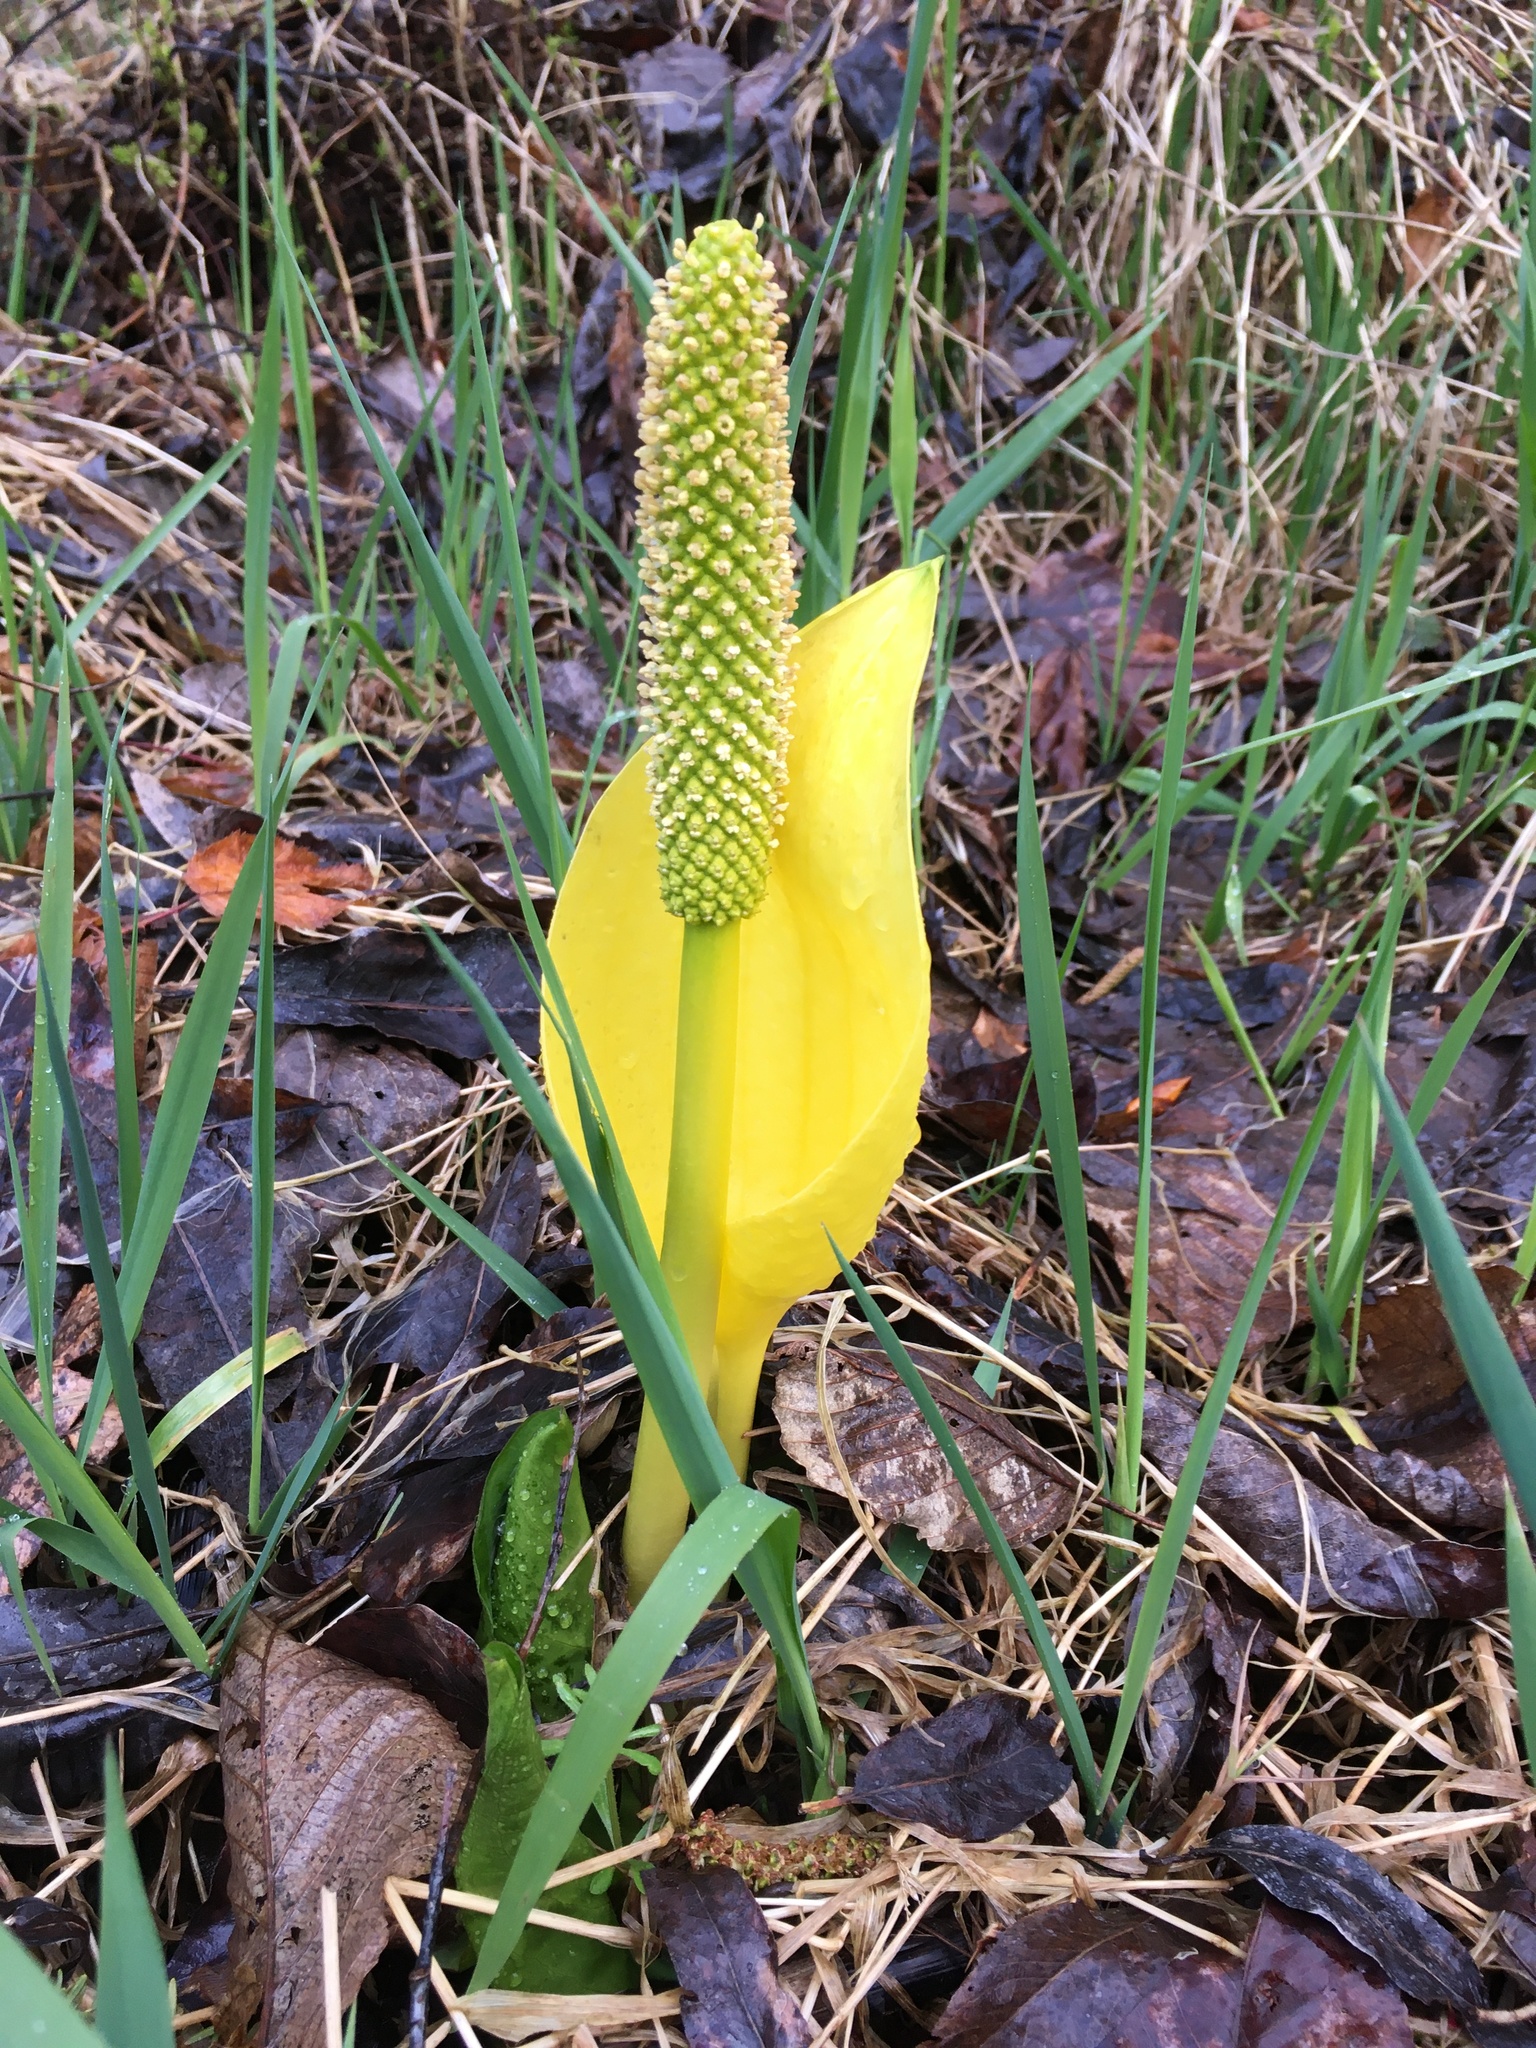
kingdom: Plantae
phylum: Tracheophyta
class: Liliopsida
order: Alismatales
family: Araceae
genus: Lysichiton
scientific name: Lysichiton americanus
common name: American skunk cabbage
